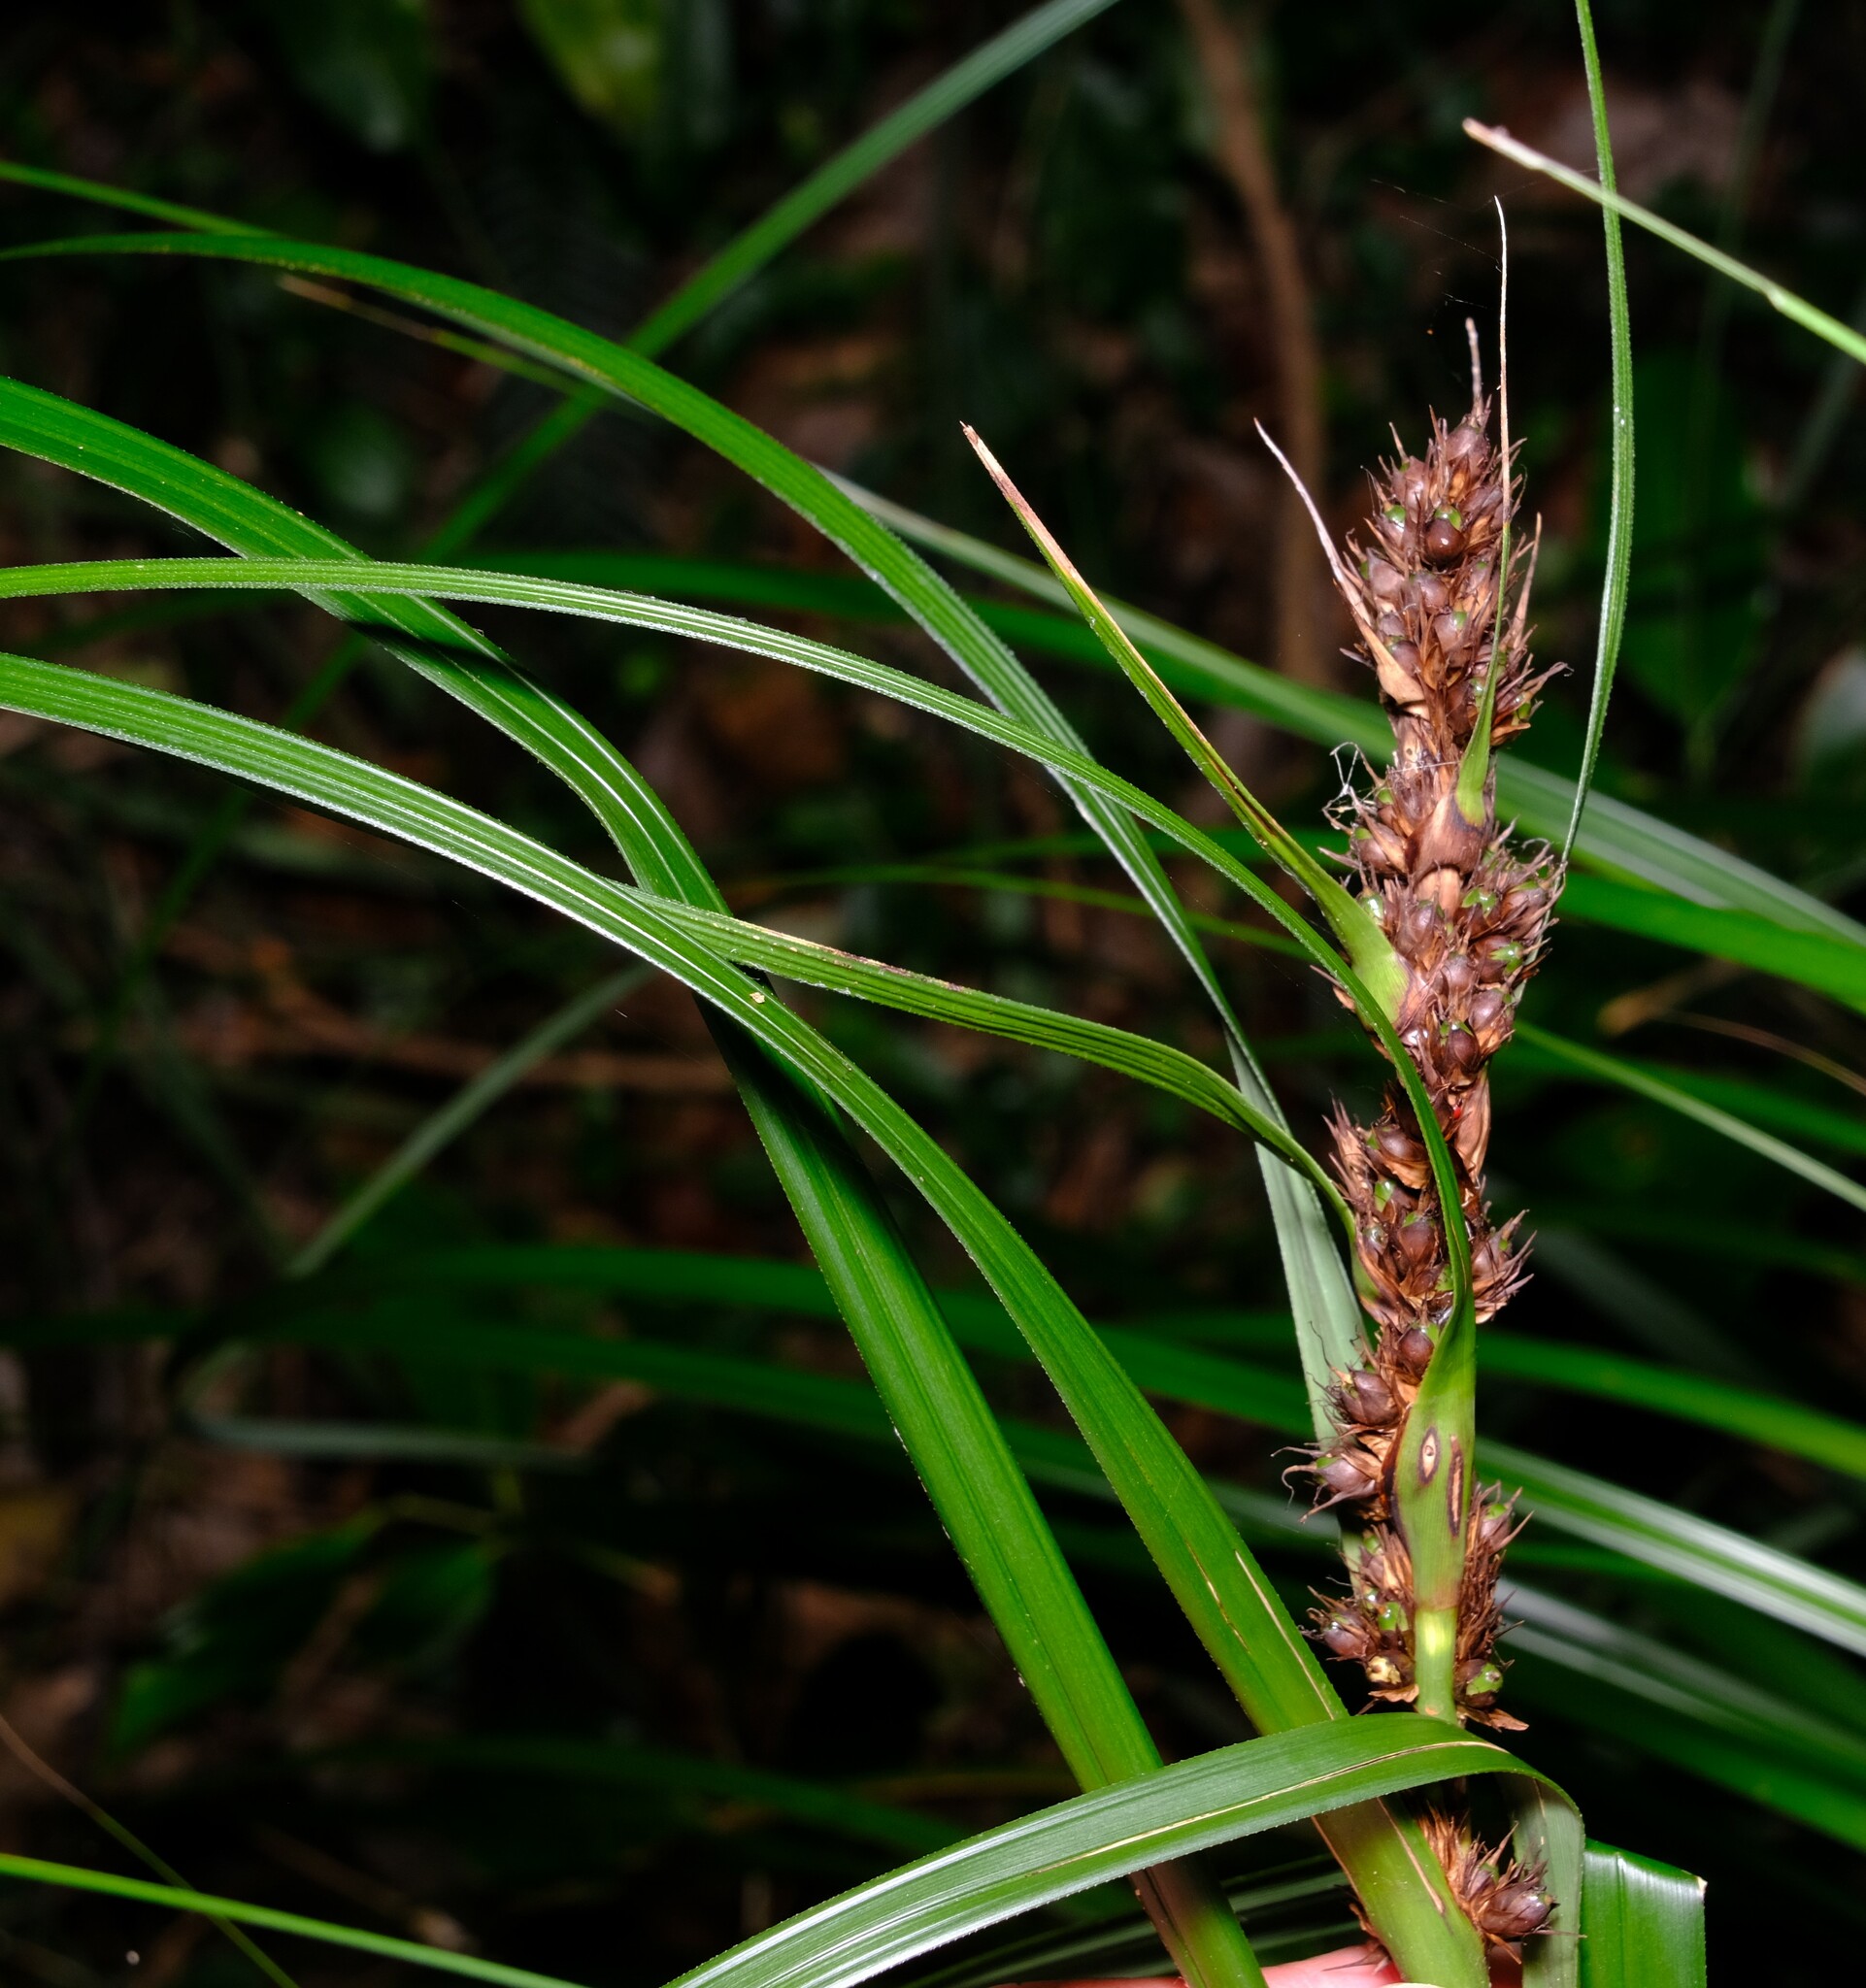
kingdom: Plantae
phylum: Tracheophyta
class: Liliopsida
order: Poales
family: Cyperaceae
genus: Gahnia
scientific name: Gahnia aspera
